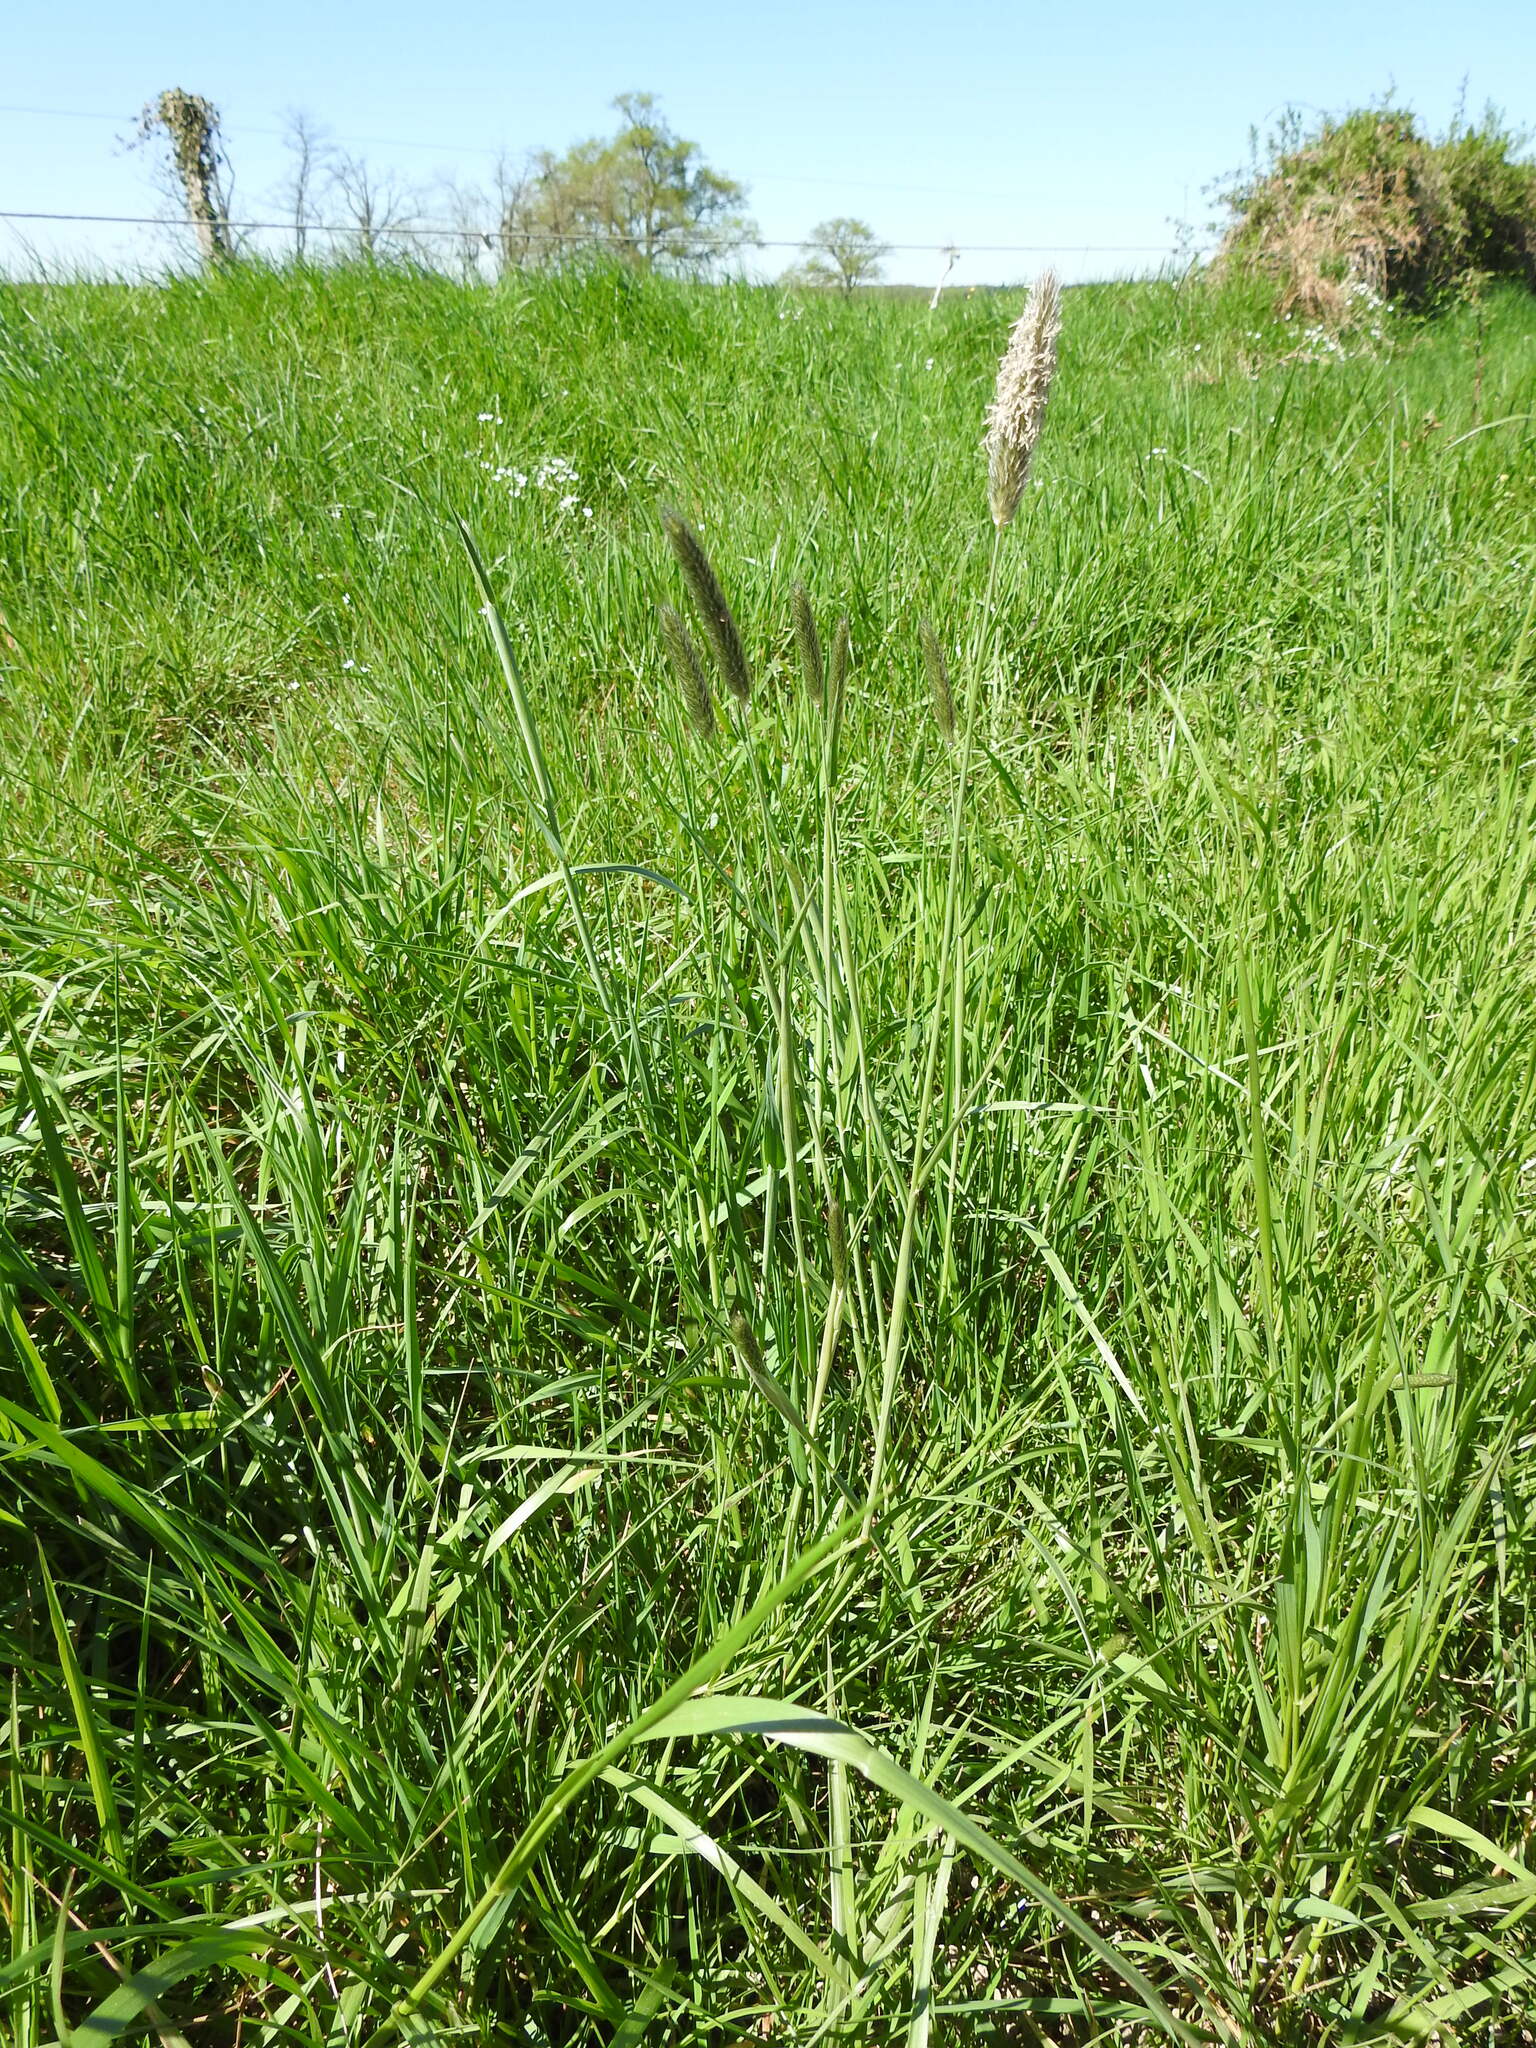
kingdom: Plantae
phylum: Tracheophyta
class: Liliopsida
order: Poales
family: Poaceae
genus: Alopecurus
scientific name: Alopecurus pratensis
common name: Meadow foxtail
